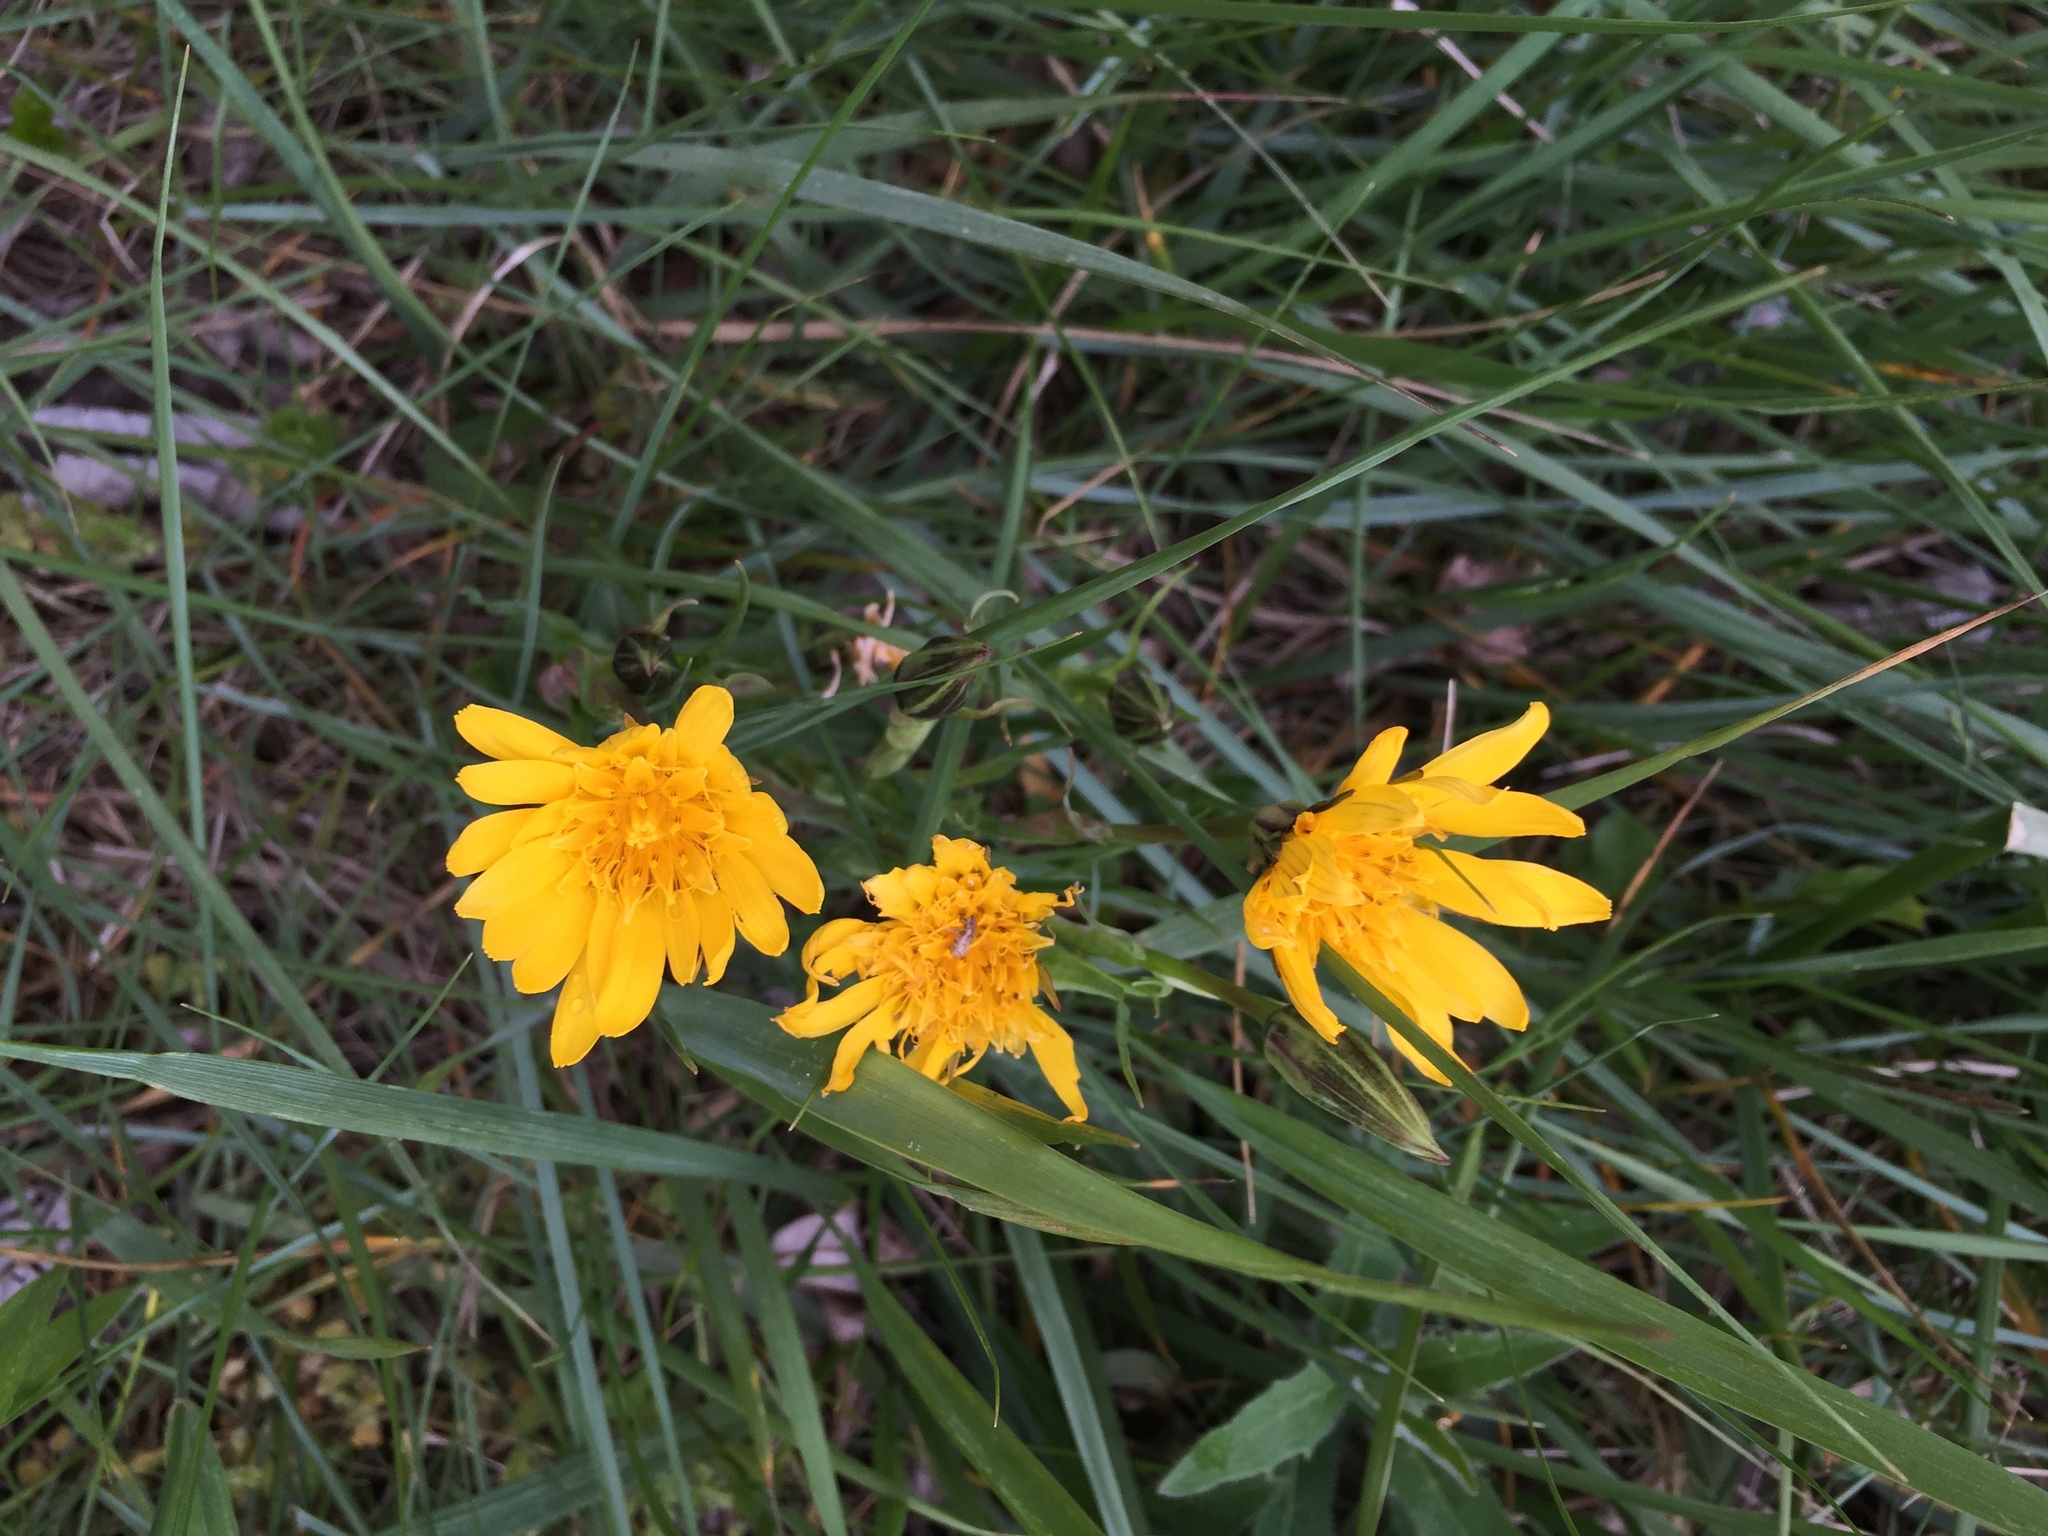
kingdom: Plantae
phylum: Tracheophyta
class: Magnoliopsida
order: Asterales
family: Asteraceae
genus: Takhtajaniantha
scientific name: Takhtajaniantha austriaca
